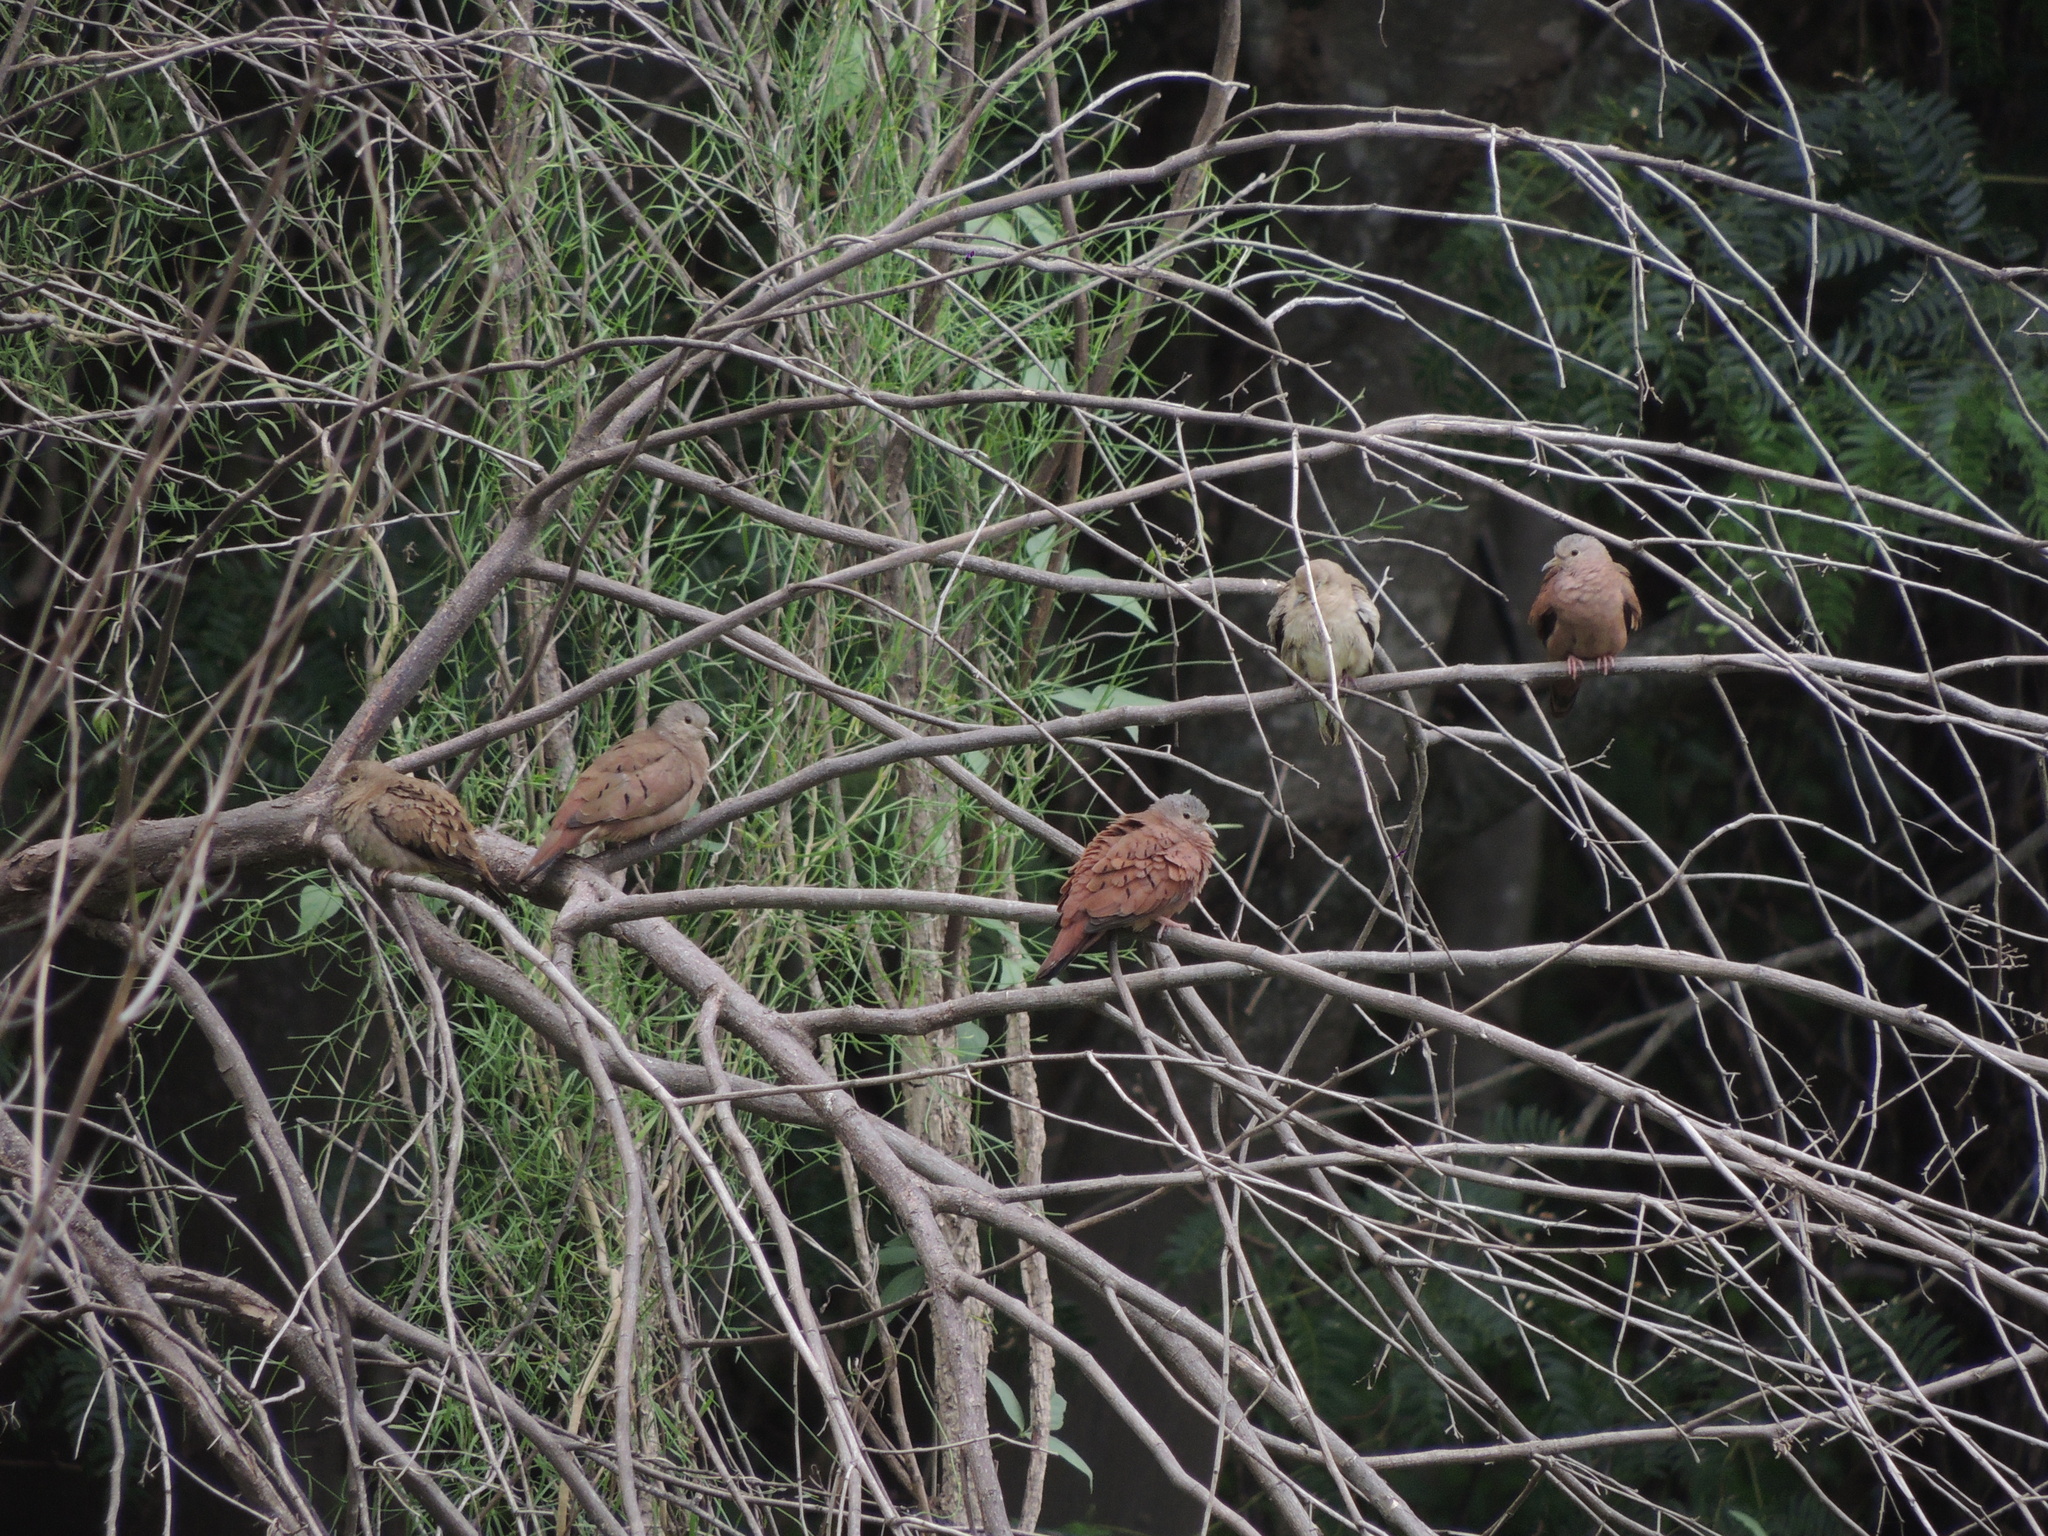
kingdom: Animalia
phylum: Chordata
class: Aves
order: Columbiformes
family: Columbidae
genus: Columbina
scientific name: Columbina talpacoti
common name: Ruddy ground dove
